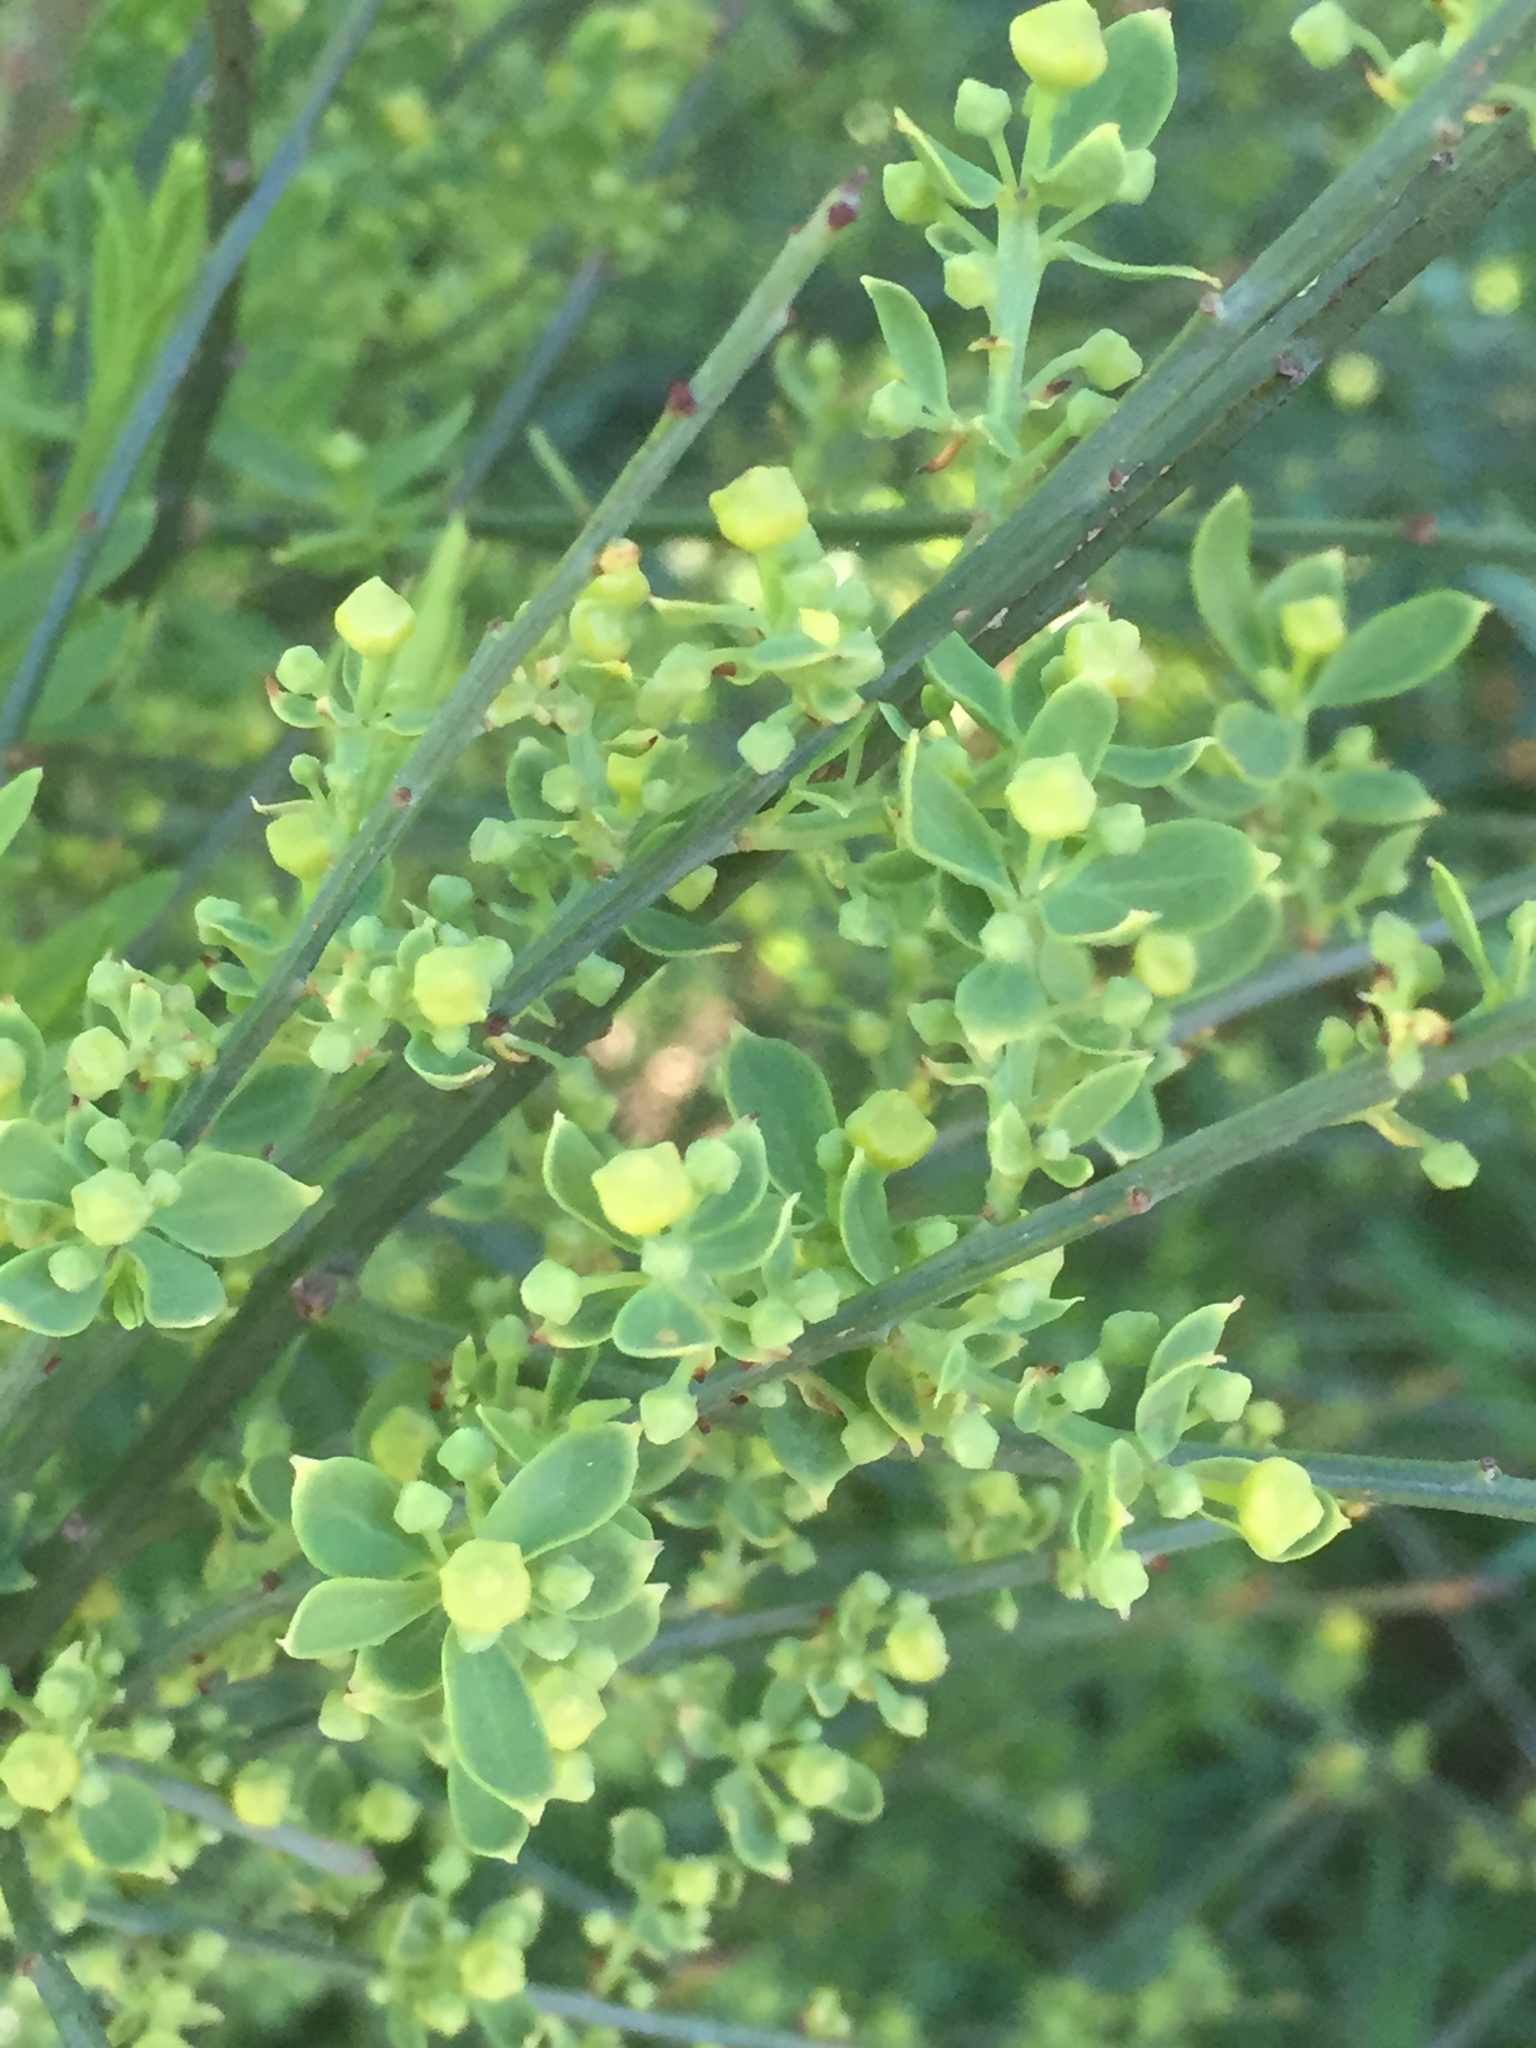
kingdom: Plantae
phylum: Tracheophyta
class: Magnoliopsida
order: Santalales
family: Santalaceae
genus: Osyris
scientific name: Osyris alba
